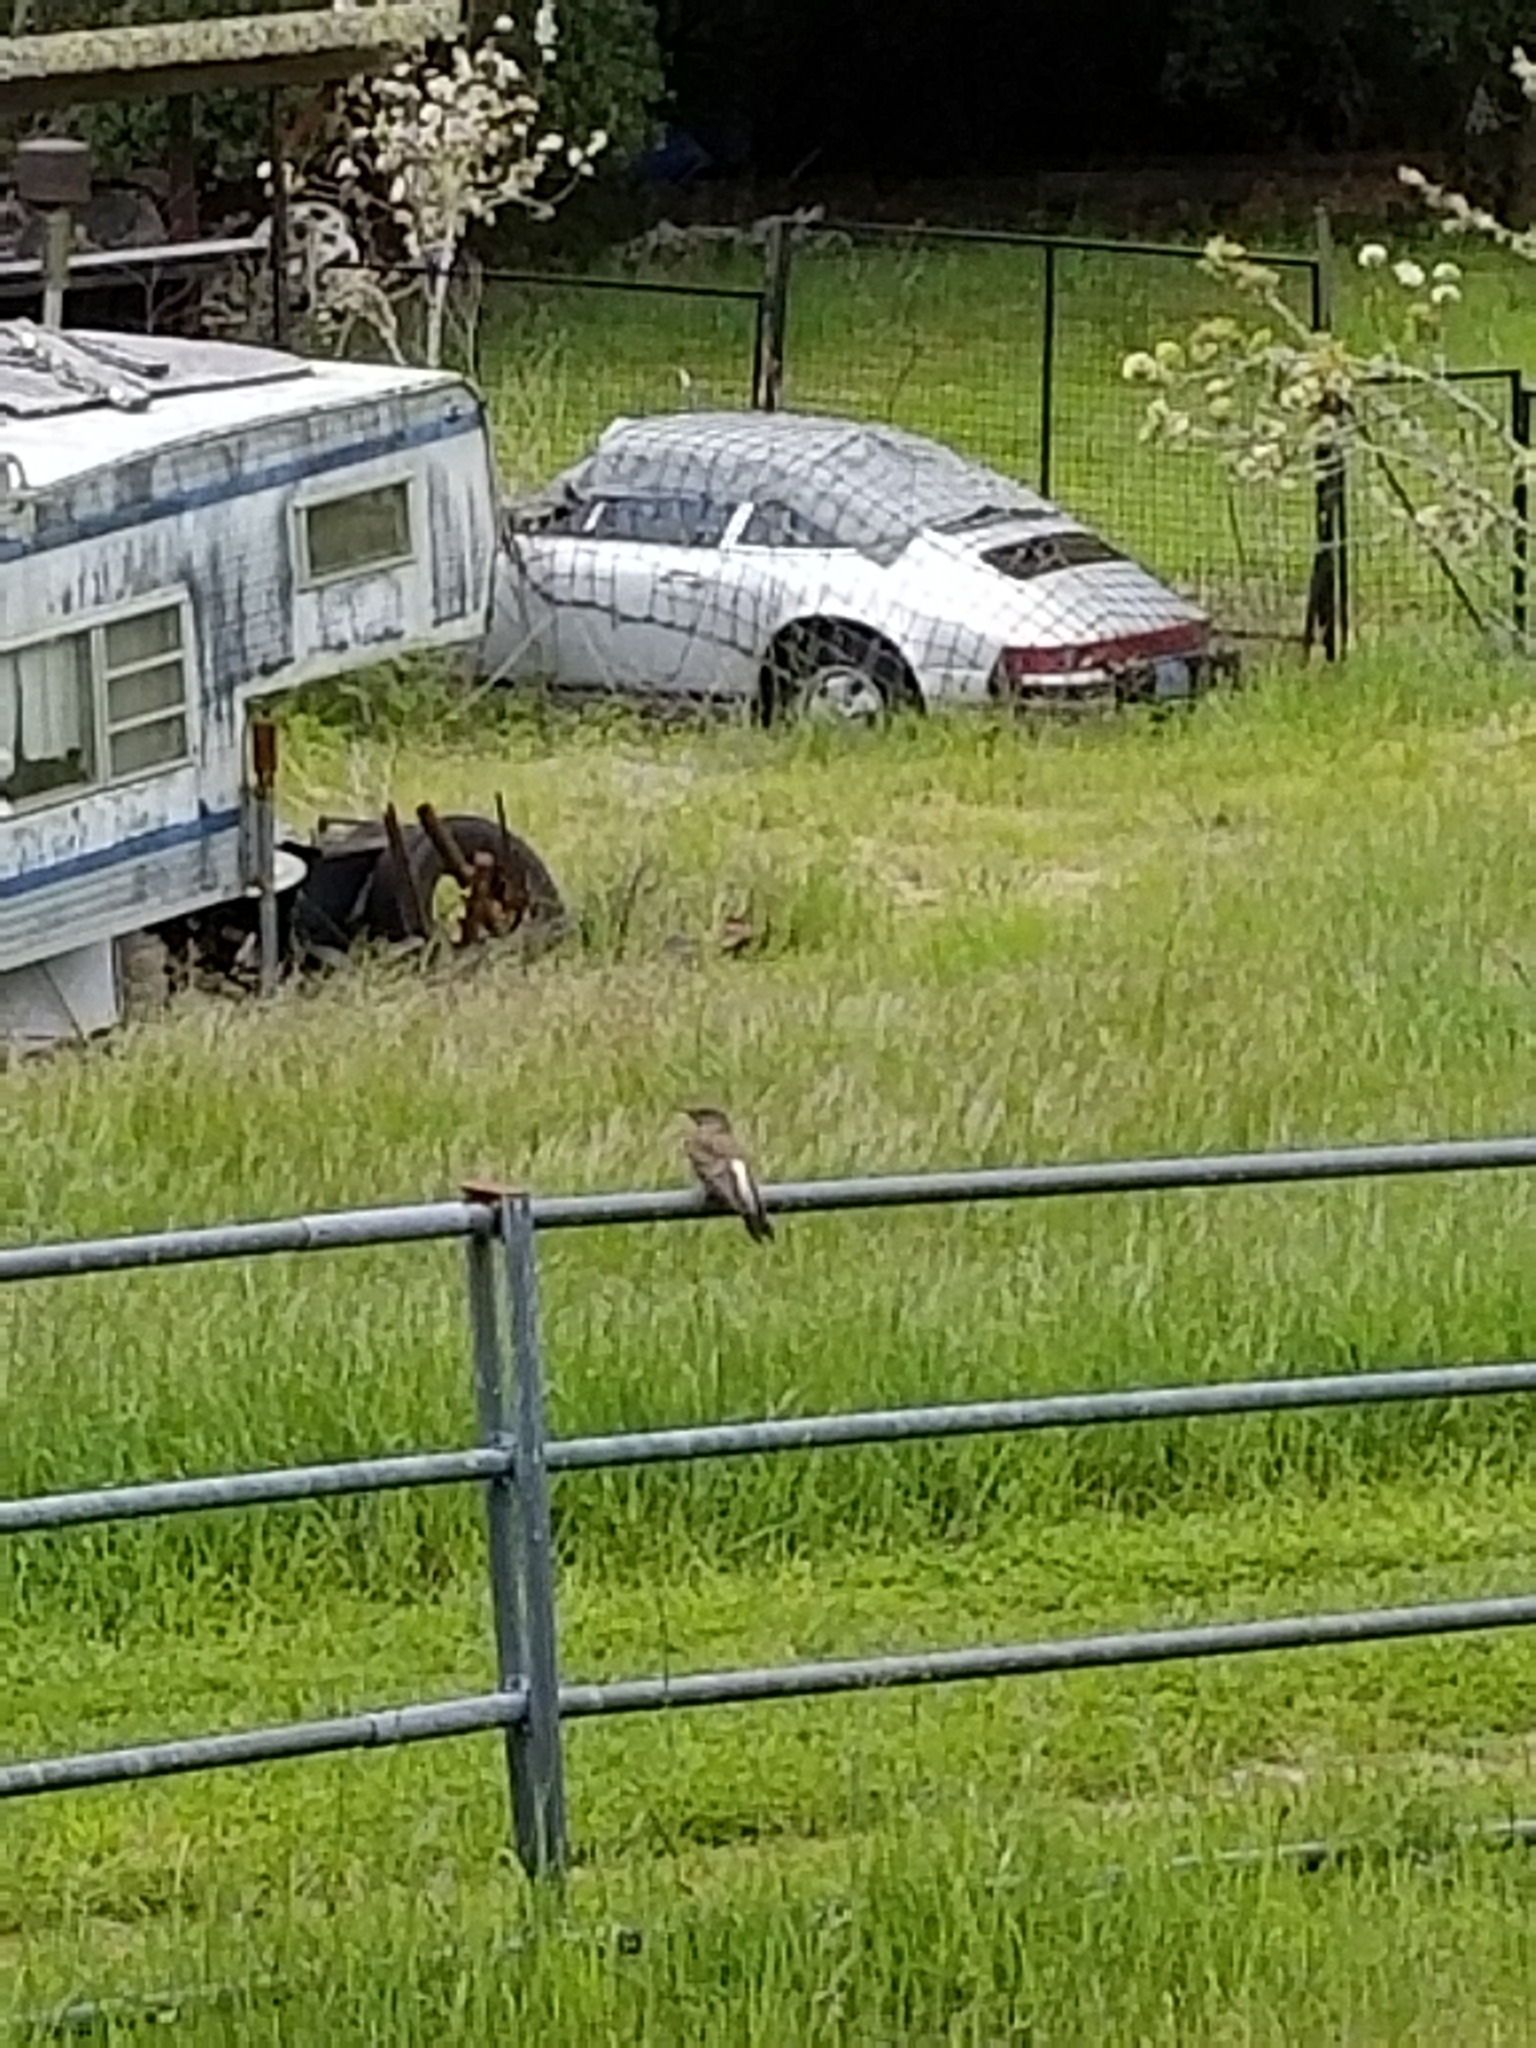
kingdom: Animalia
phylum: Chordata
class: Aves
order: Piciformes
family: Picidae
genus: Colaptes
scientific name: Colaptes auratus
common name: Northern flicker
